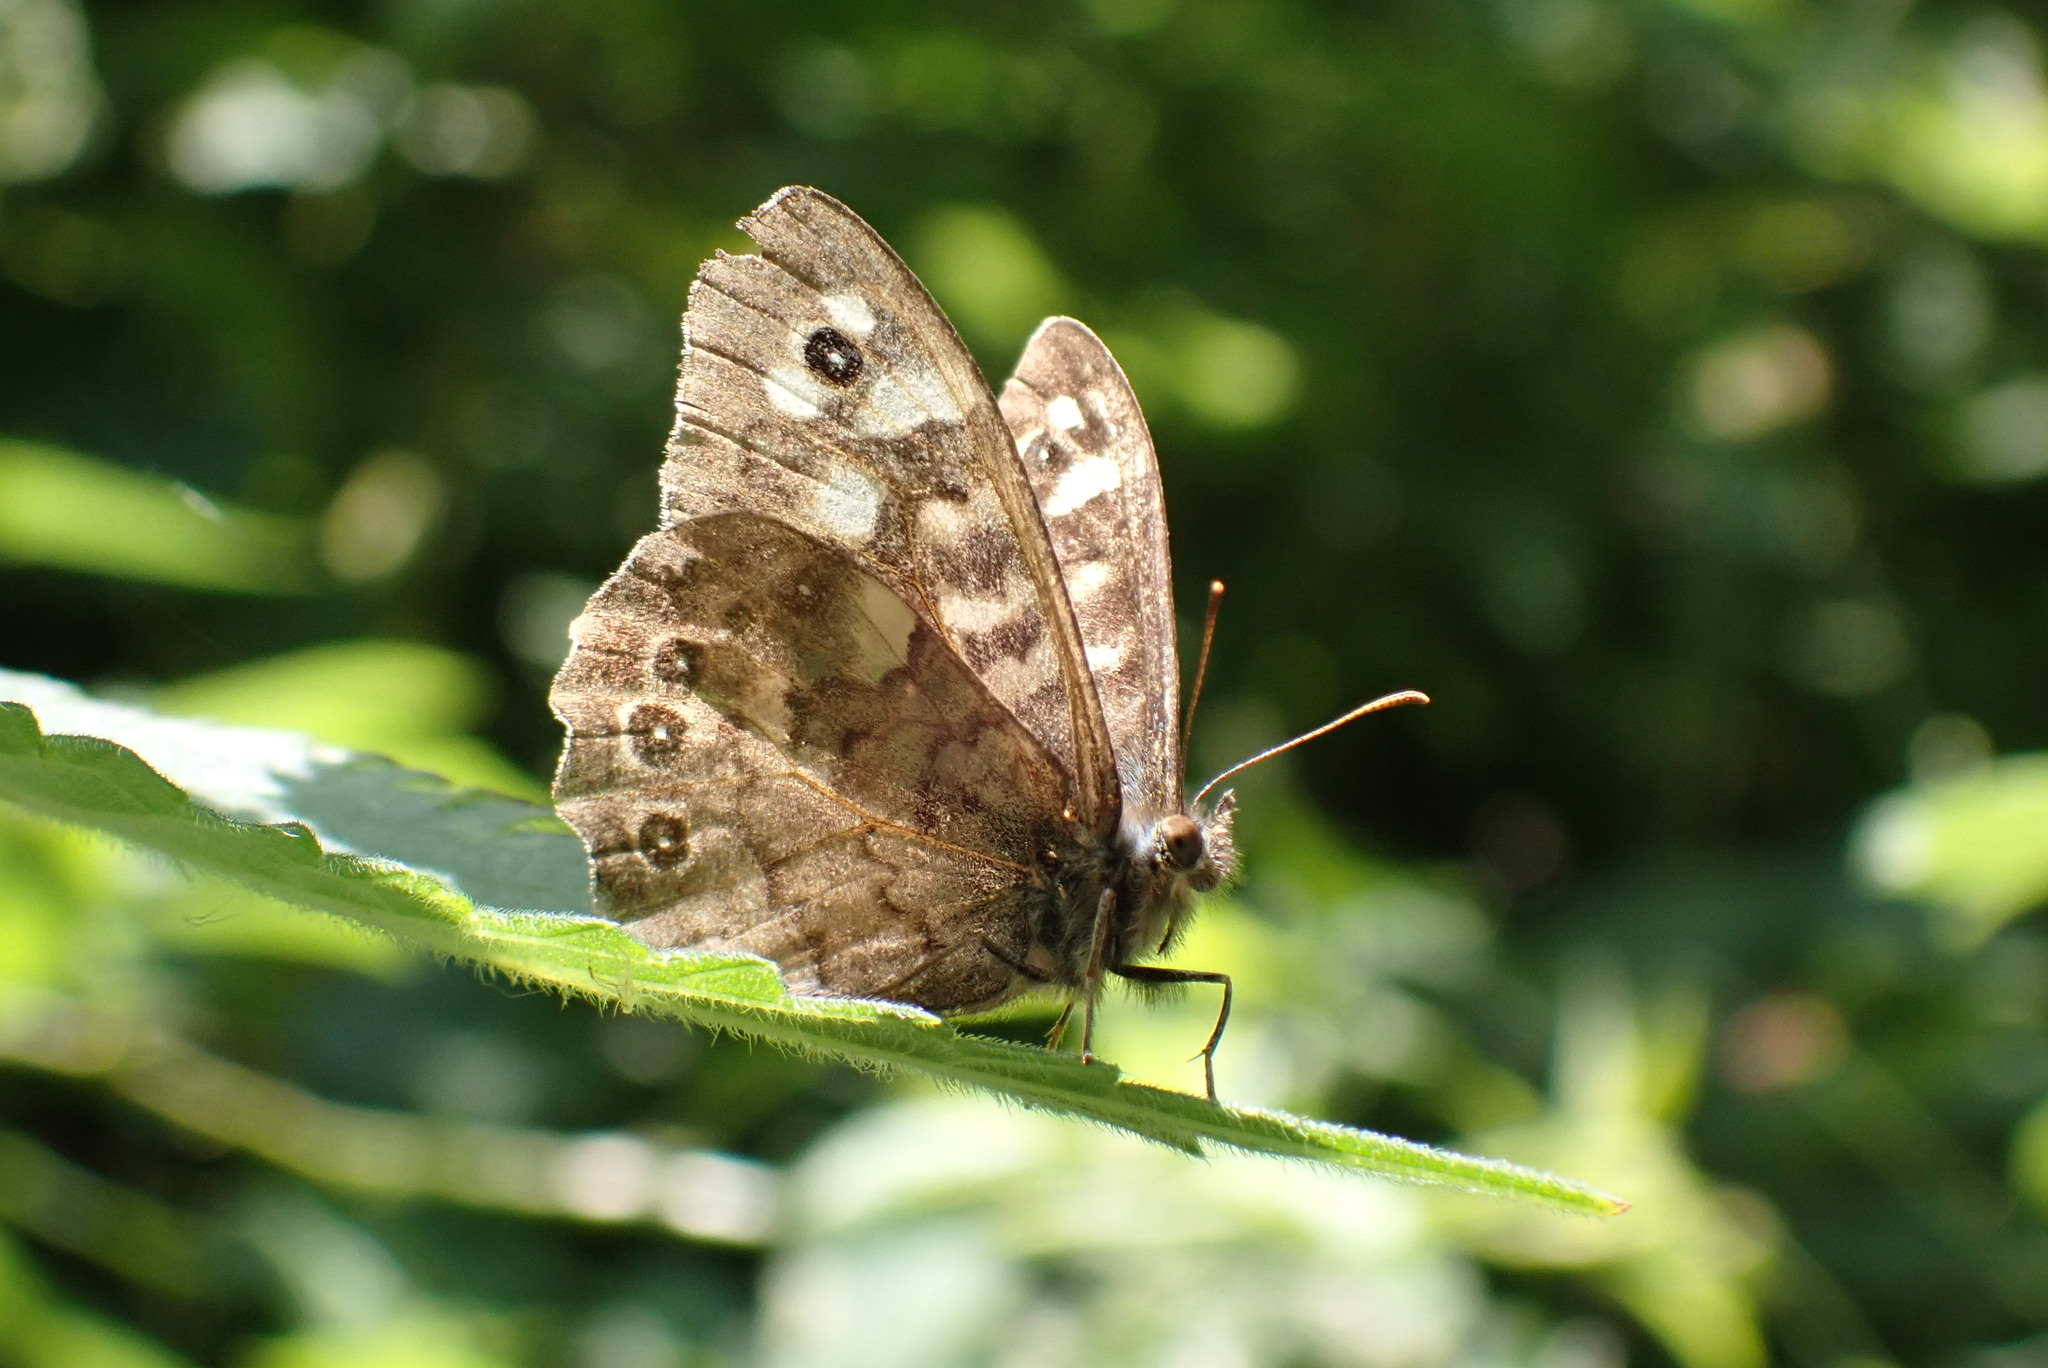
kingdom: Animalia
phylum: Arthropoda
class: Insecta
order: Lepidoptera
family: Nymphalidae
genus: Pararge
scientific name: Pararge aegeria
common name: Speckled wood
